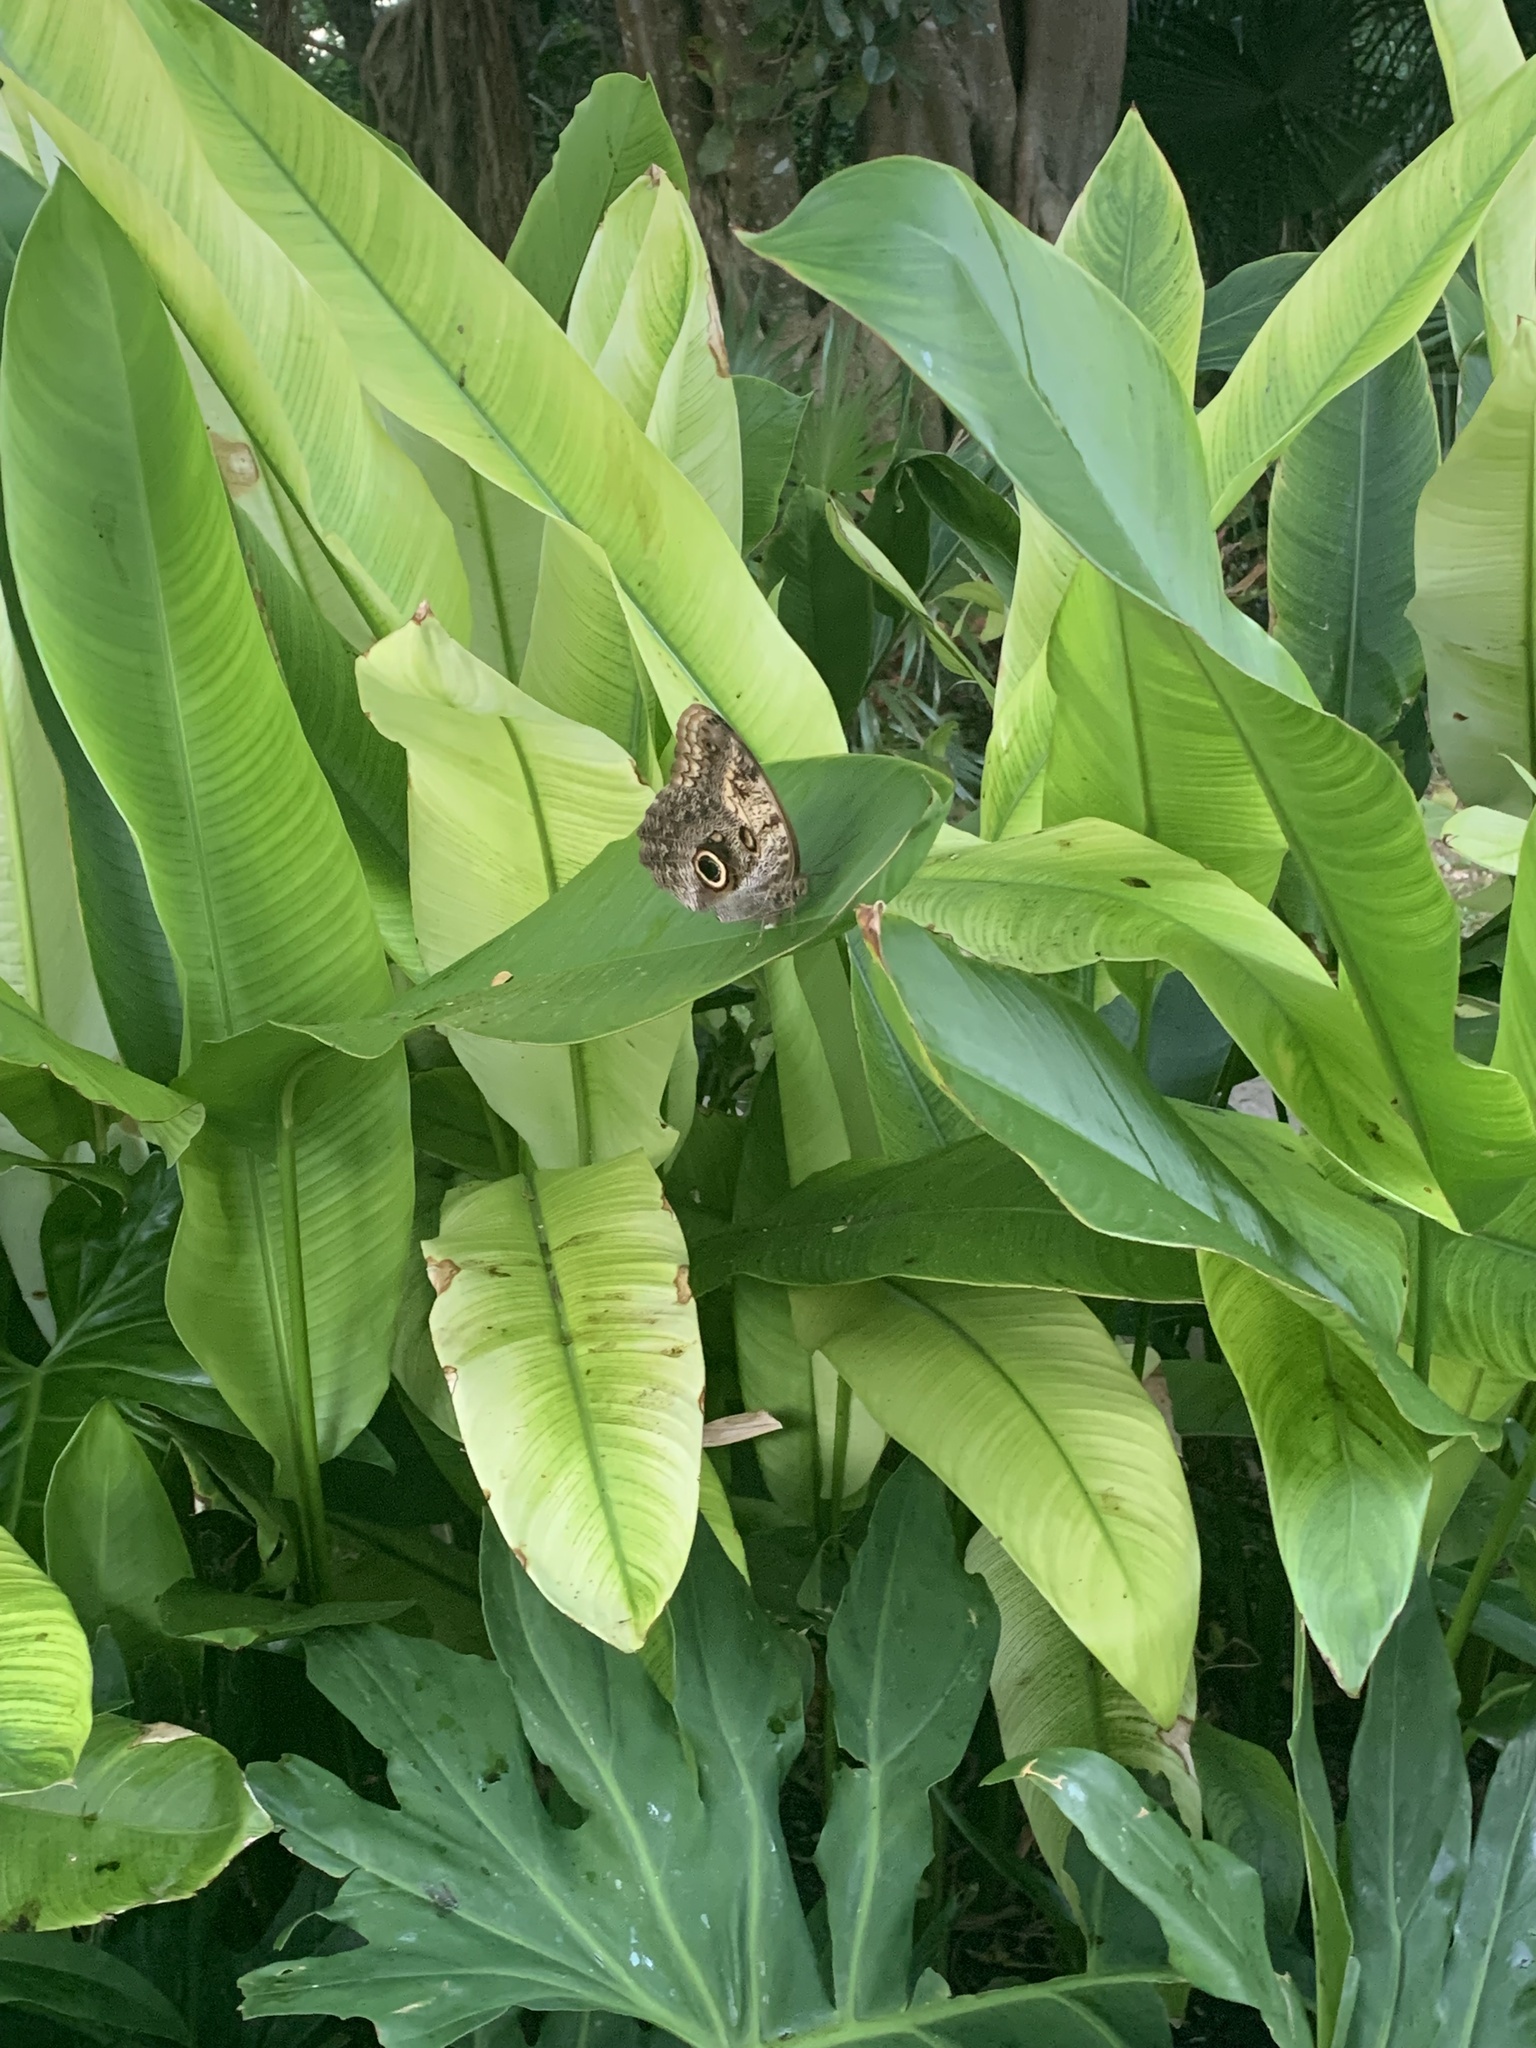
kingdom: Animalia
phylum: Arthropoda
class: Insecta
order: Lepidoptera
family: Nymphalidae
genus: Caligo
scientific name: Caligo telamonius
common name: Pale owl-butterfly
